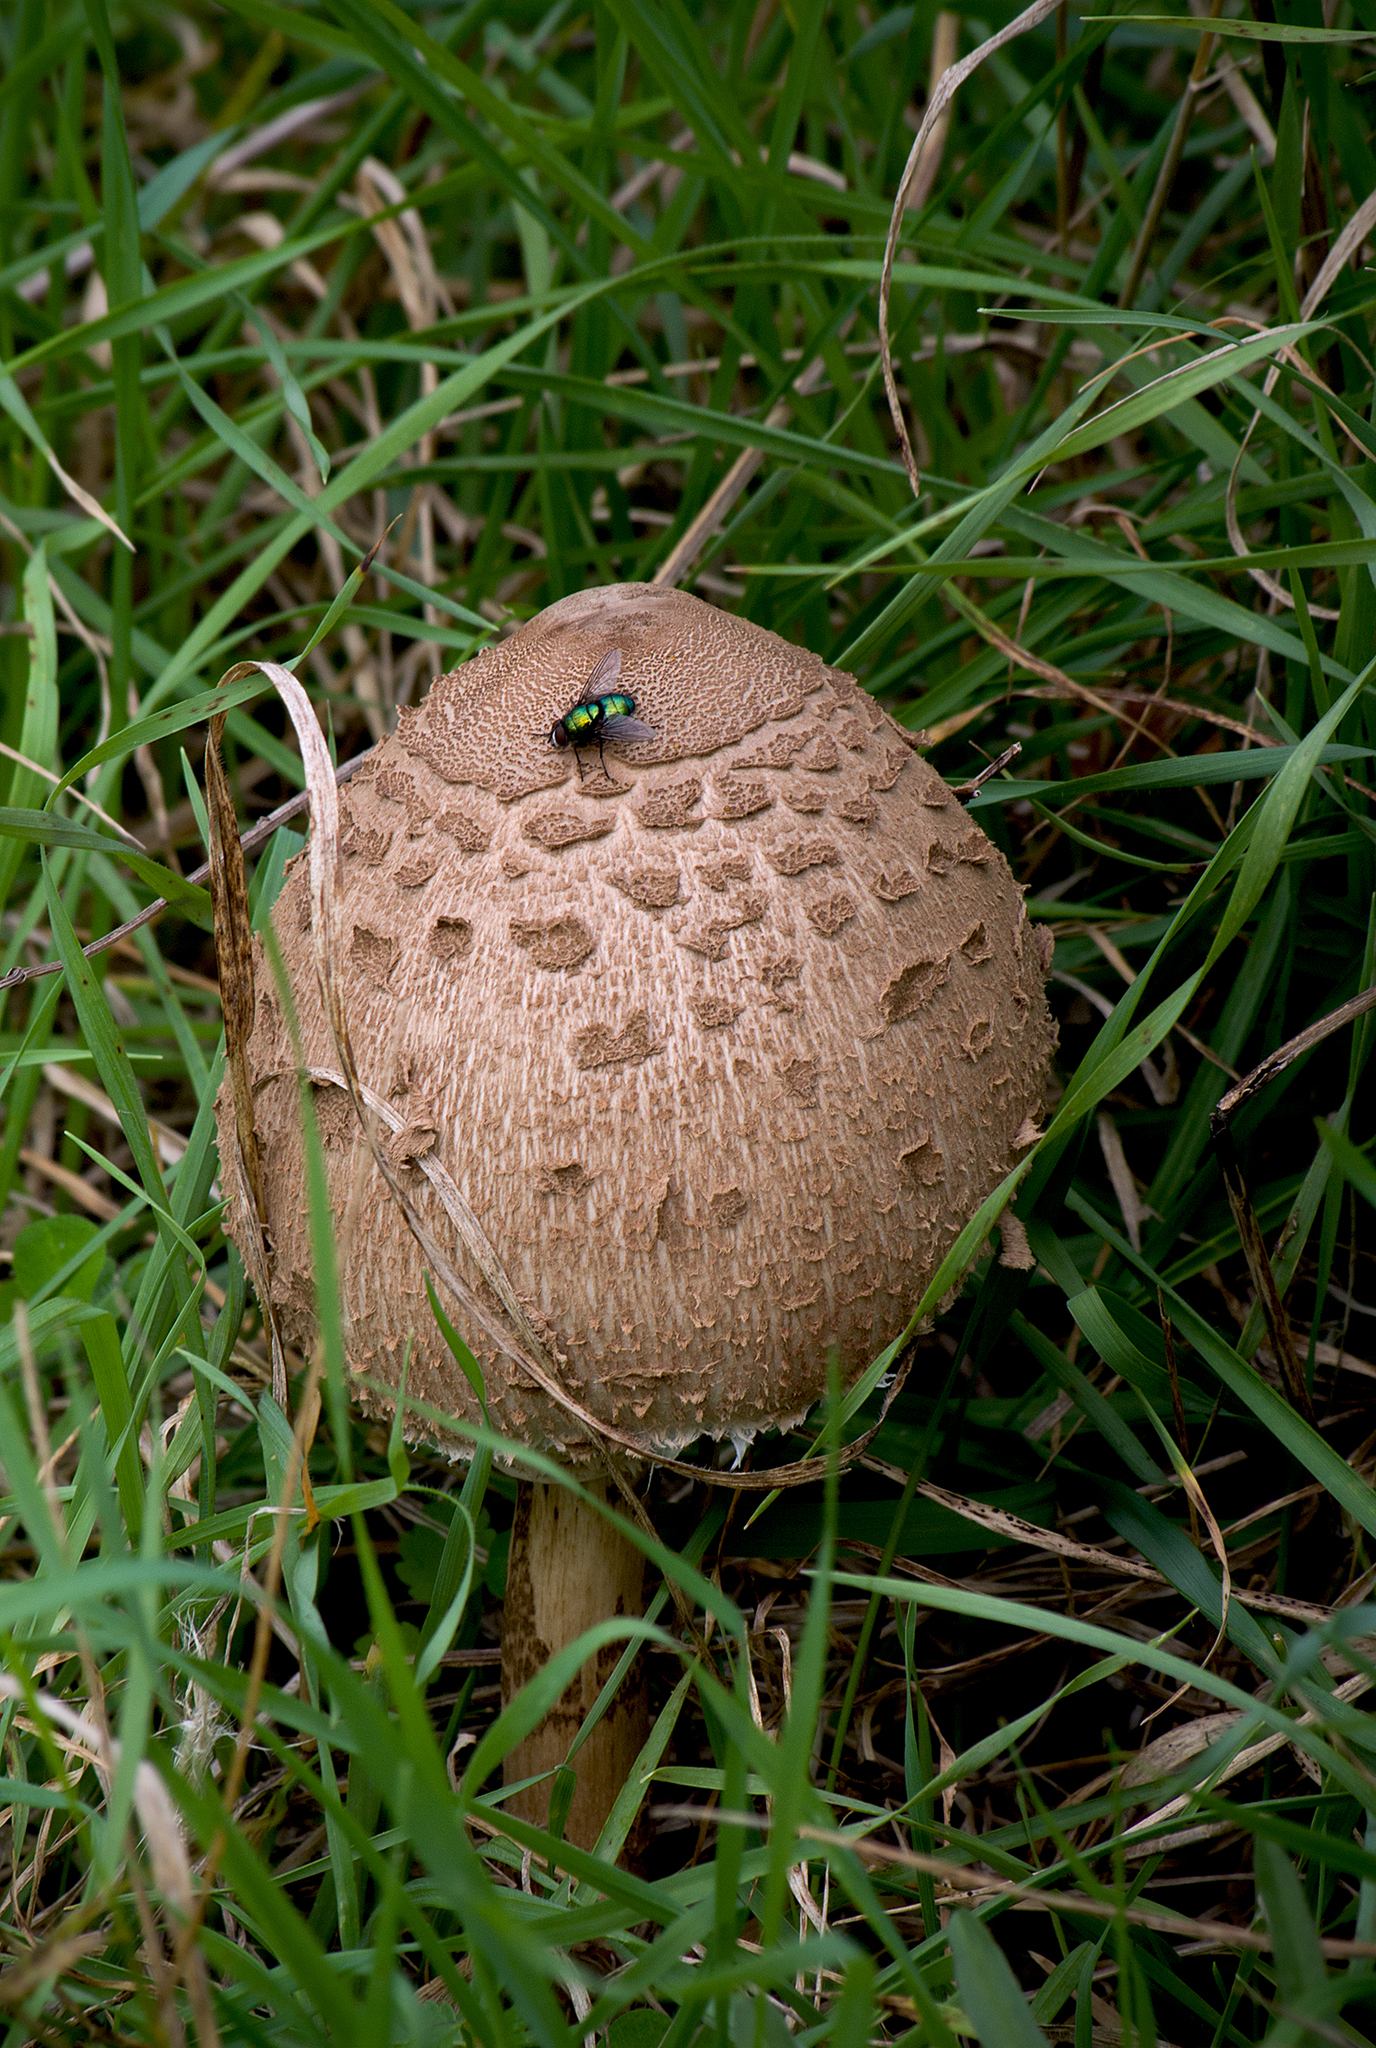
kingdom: Fungi
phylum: Basidiomycota
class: Agaricomycetes
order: Agaricales
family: Agaricaceae
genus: Macrolepiota
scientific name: Macrolepiota procera
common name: Parasol
